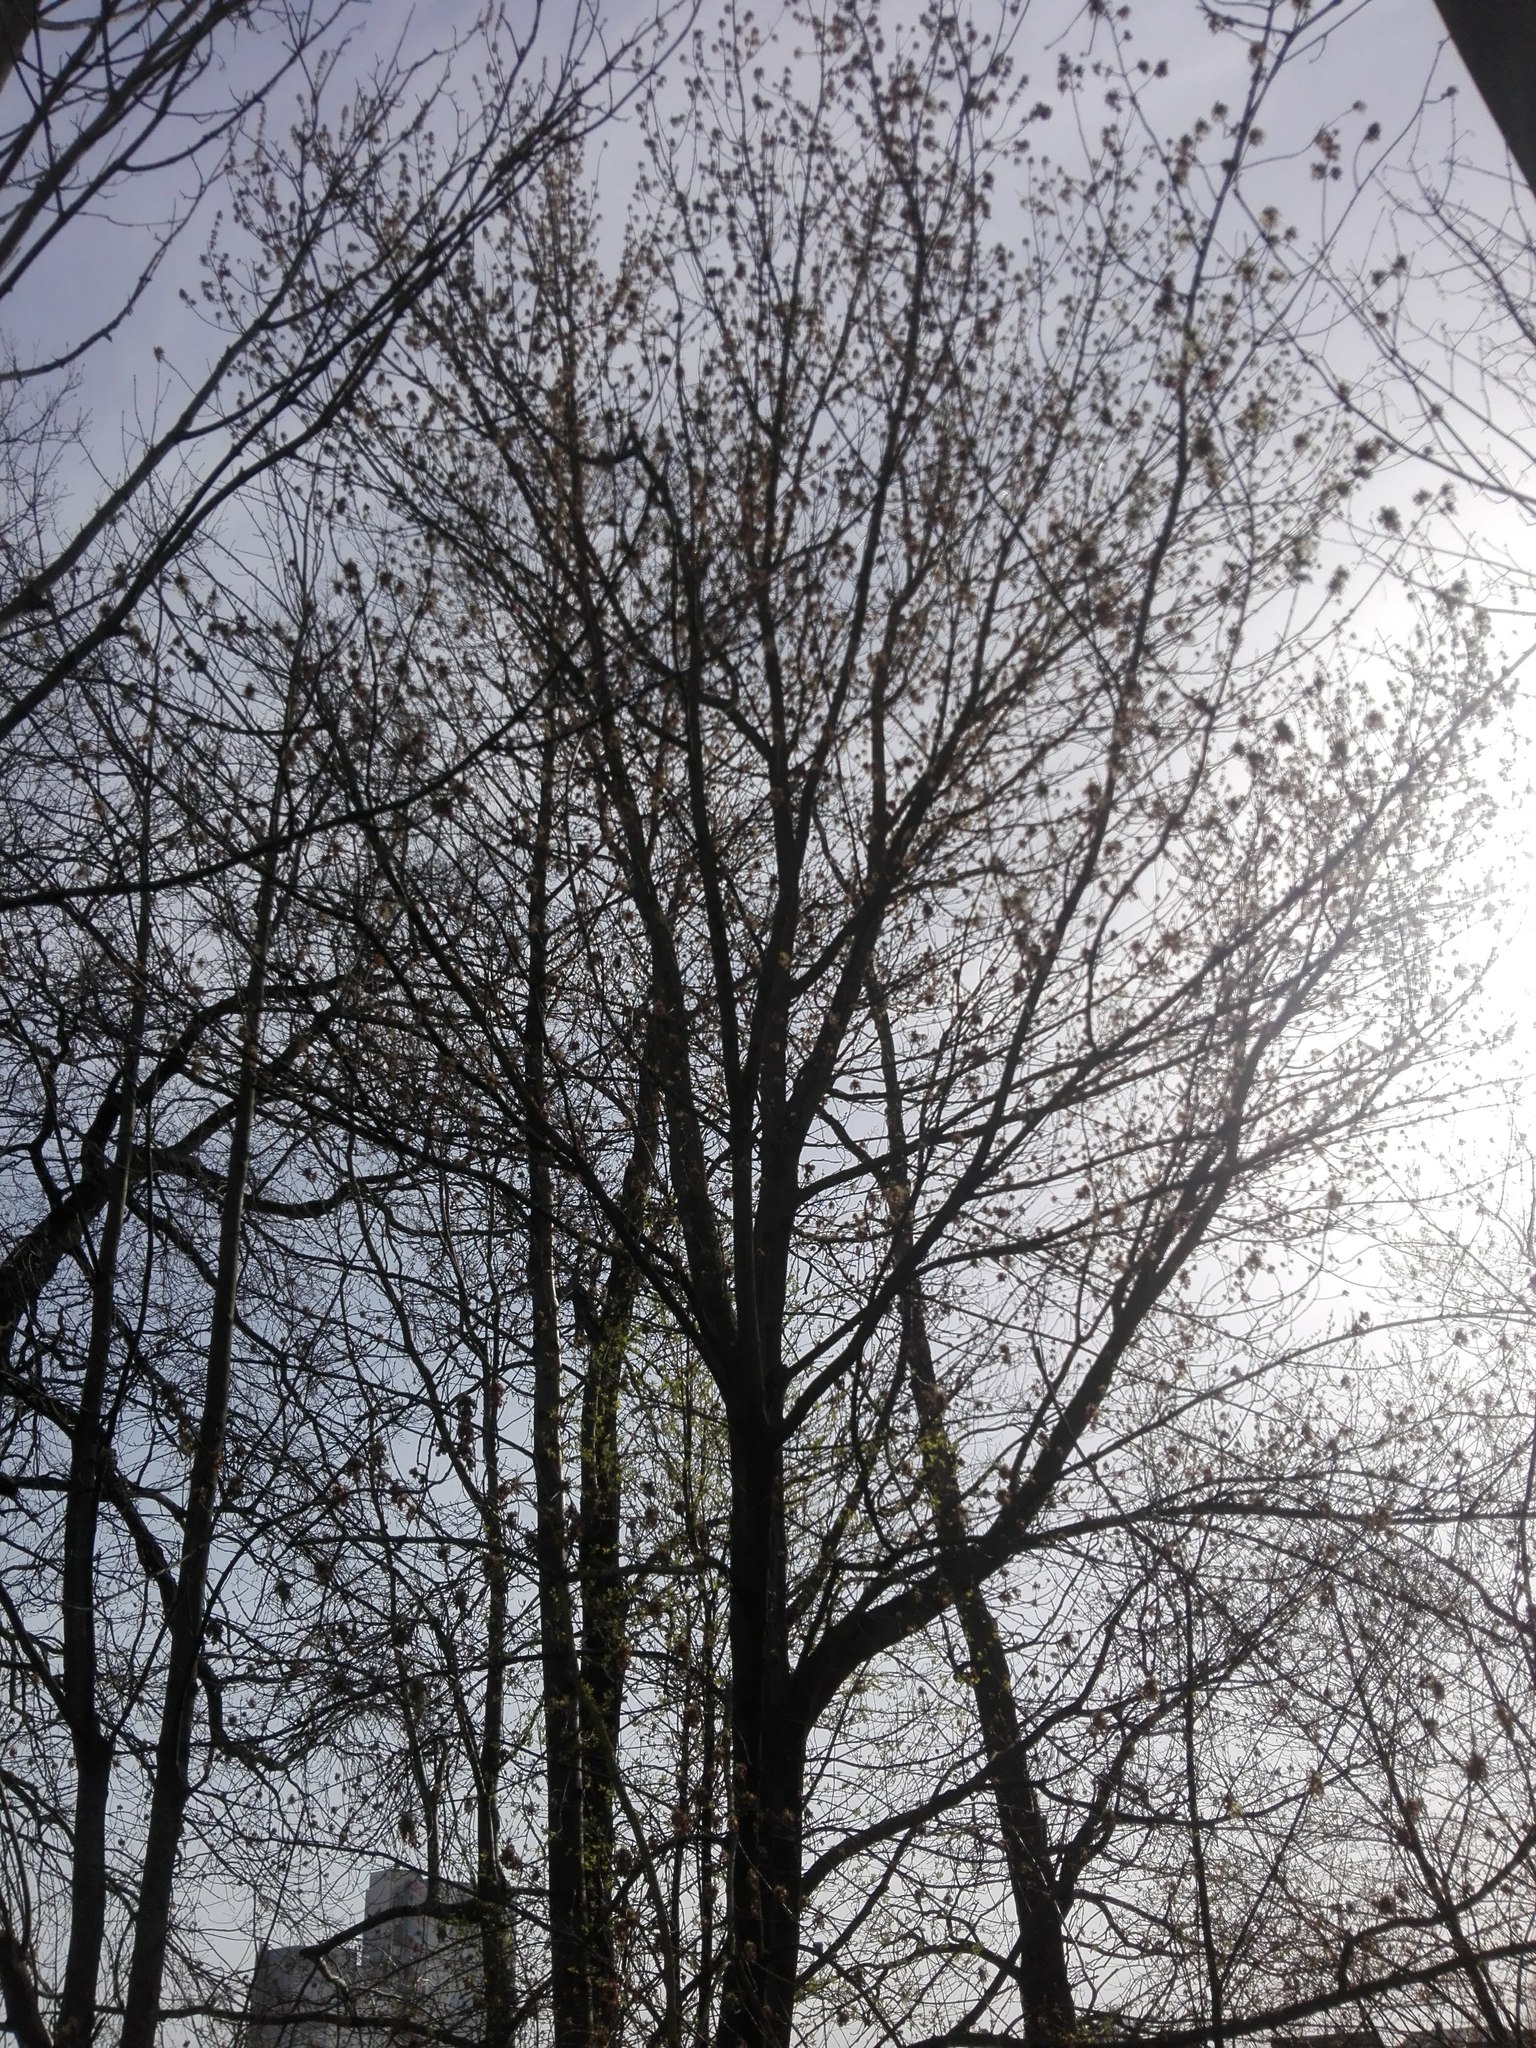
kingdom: Plantae
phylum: Tracheophyta
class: Magnoliopsida
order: Sapindales
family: Sapindaceae
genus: Acer
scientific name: Acer negundo
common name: Ashleaf maple
